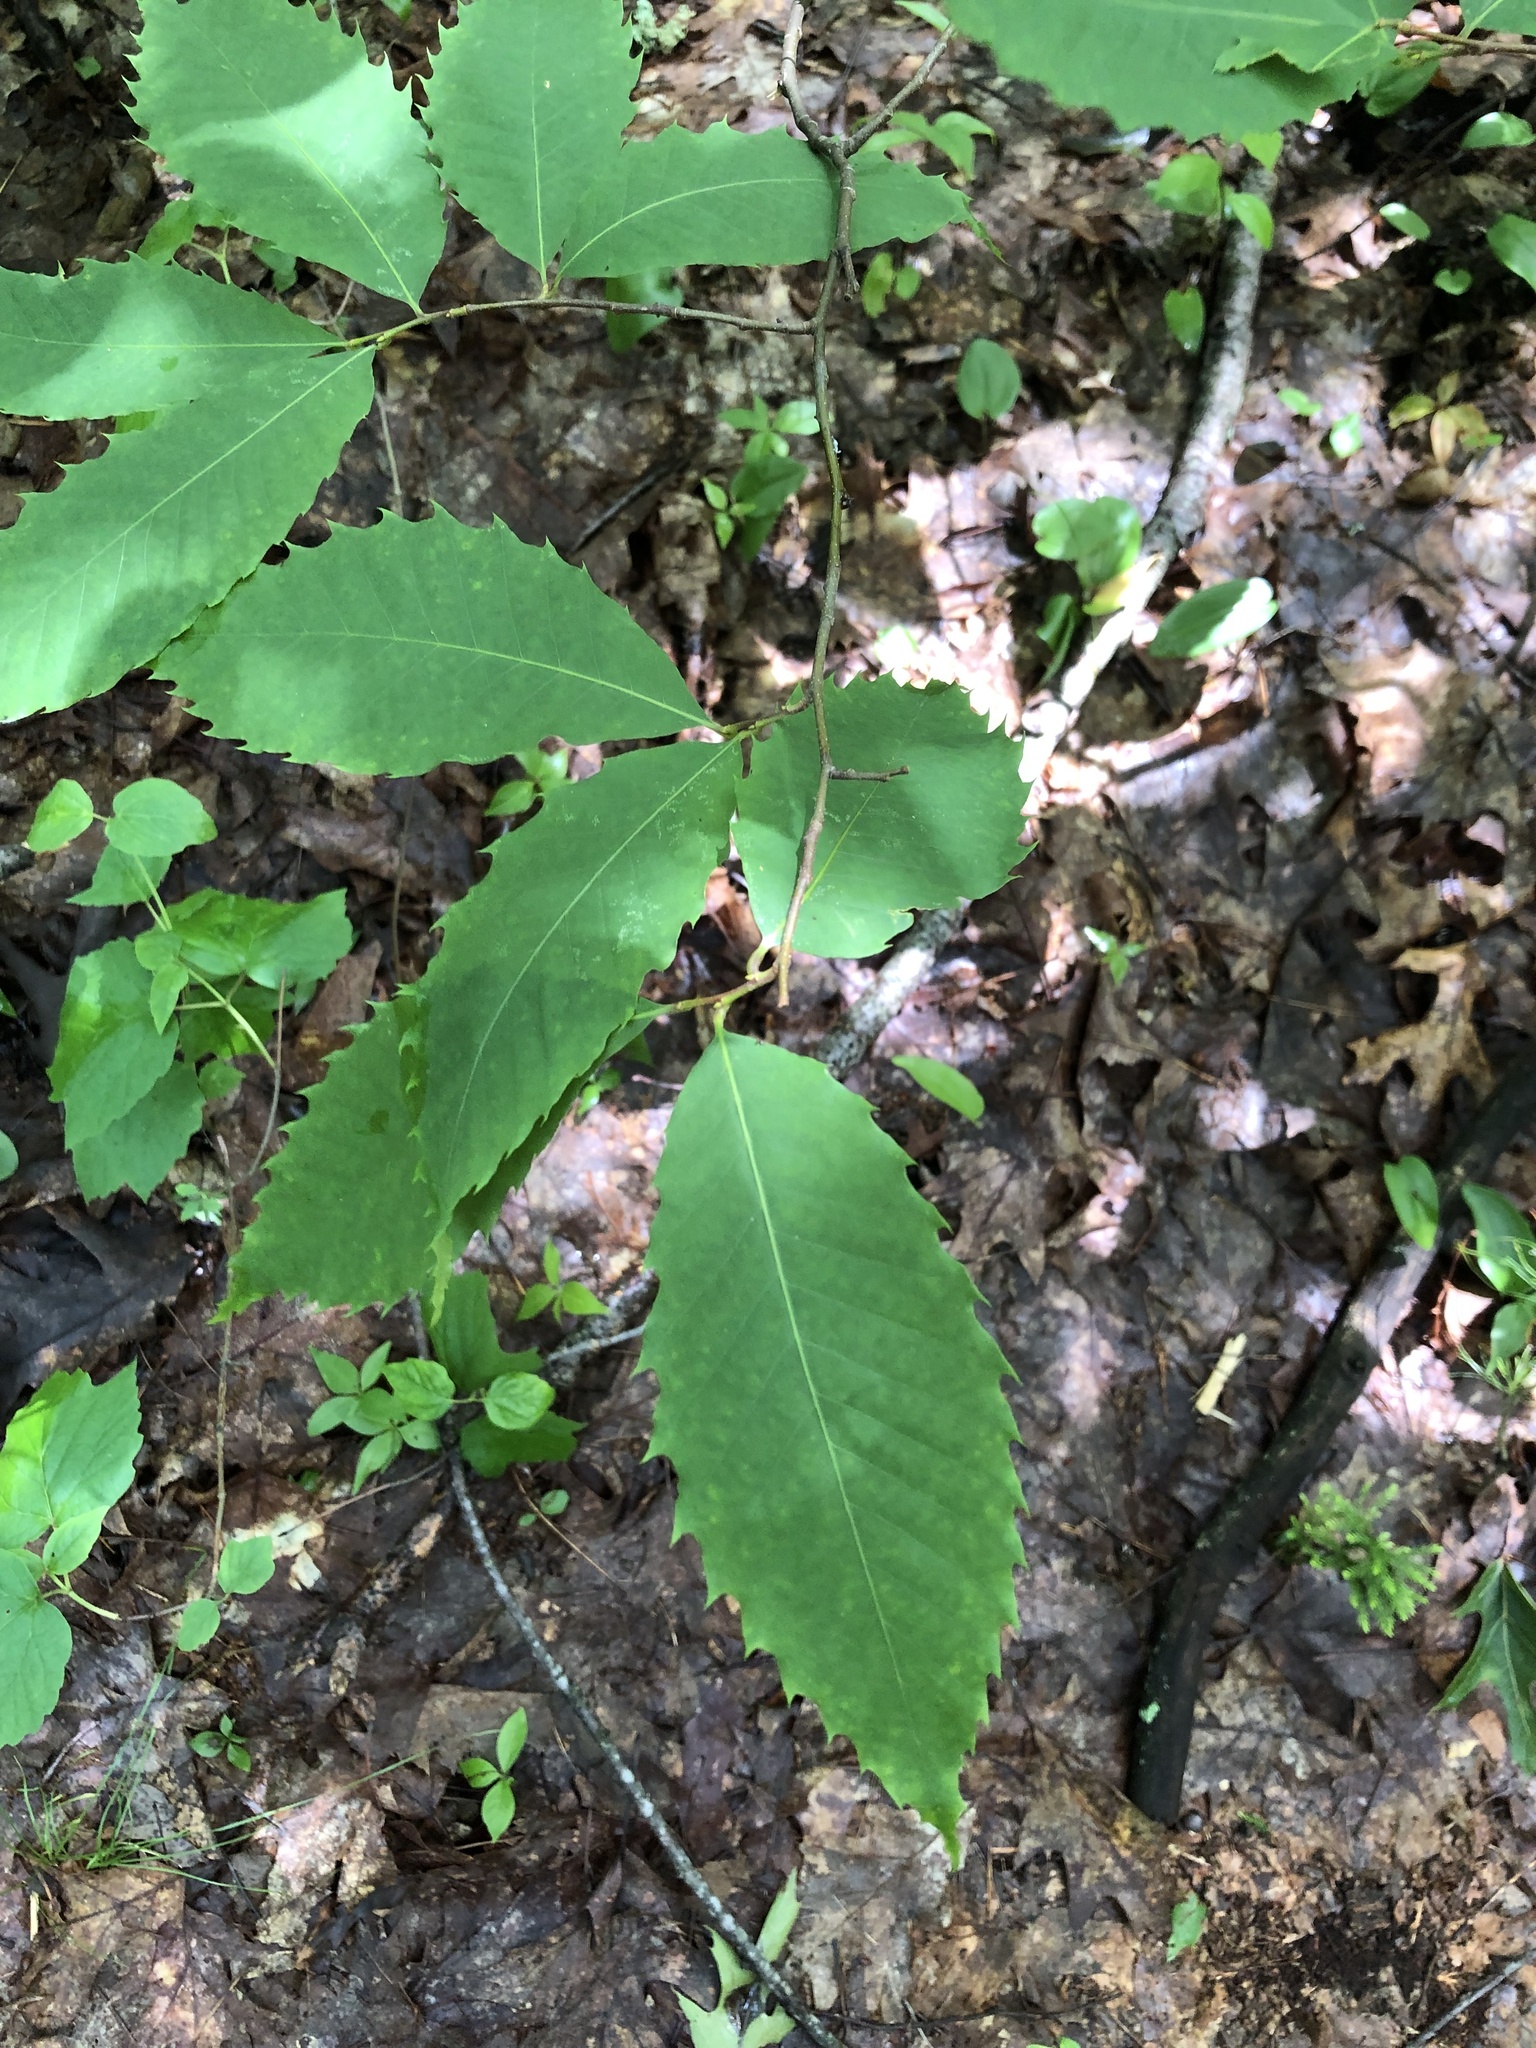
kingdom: Plantae
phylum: Tracheophyta
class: Magnoliopsida
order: Fagales
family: Fagaceae
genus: Castanea
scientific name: Castanea dentata
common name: American chestnut
